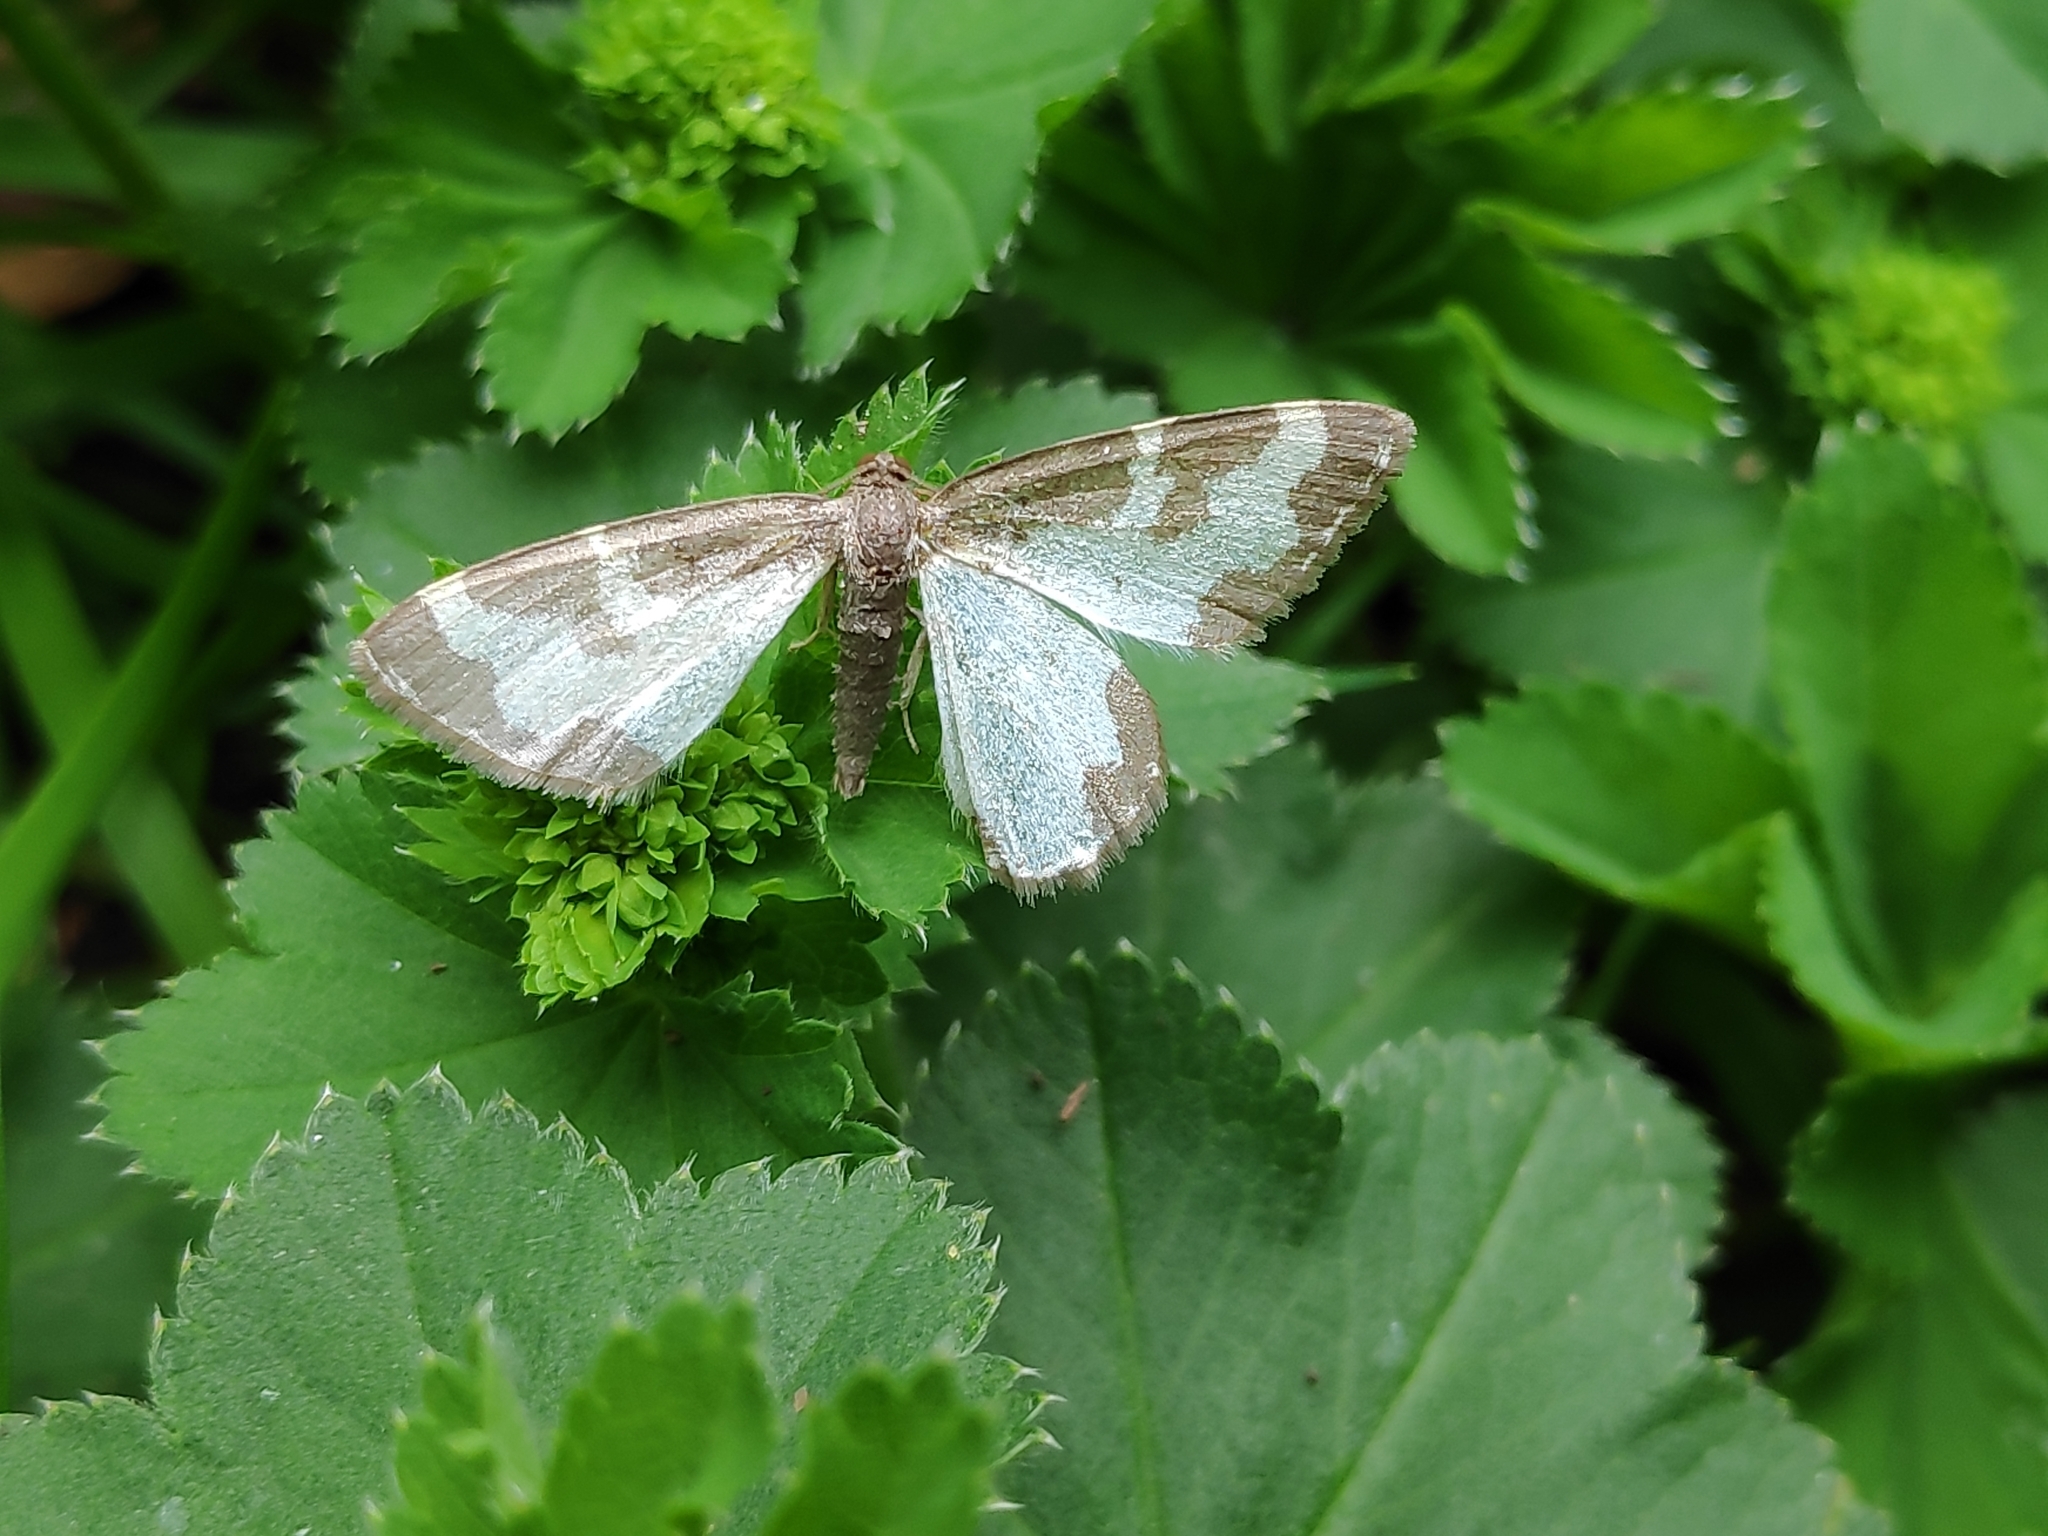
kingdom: Animalia
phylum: Arthropoda
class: Insecta
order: Lepidoptera
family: Geometridae
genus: Lomaspilis
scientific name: Lomaspilis marginata
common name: Clouded border
